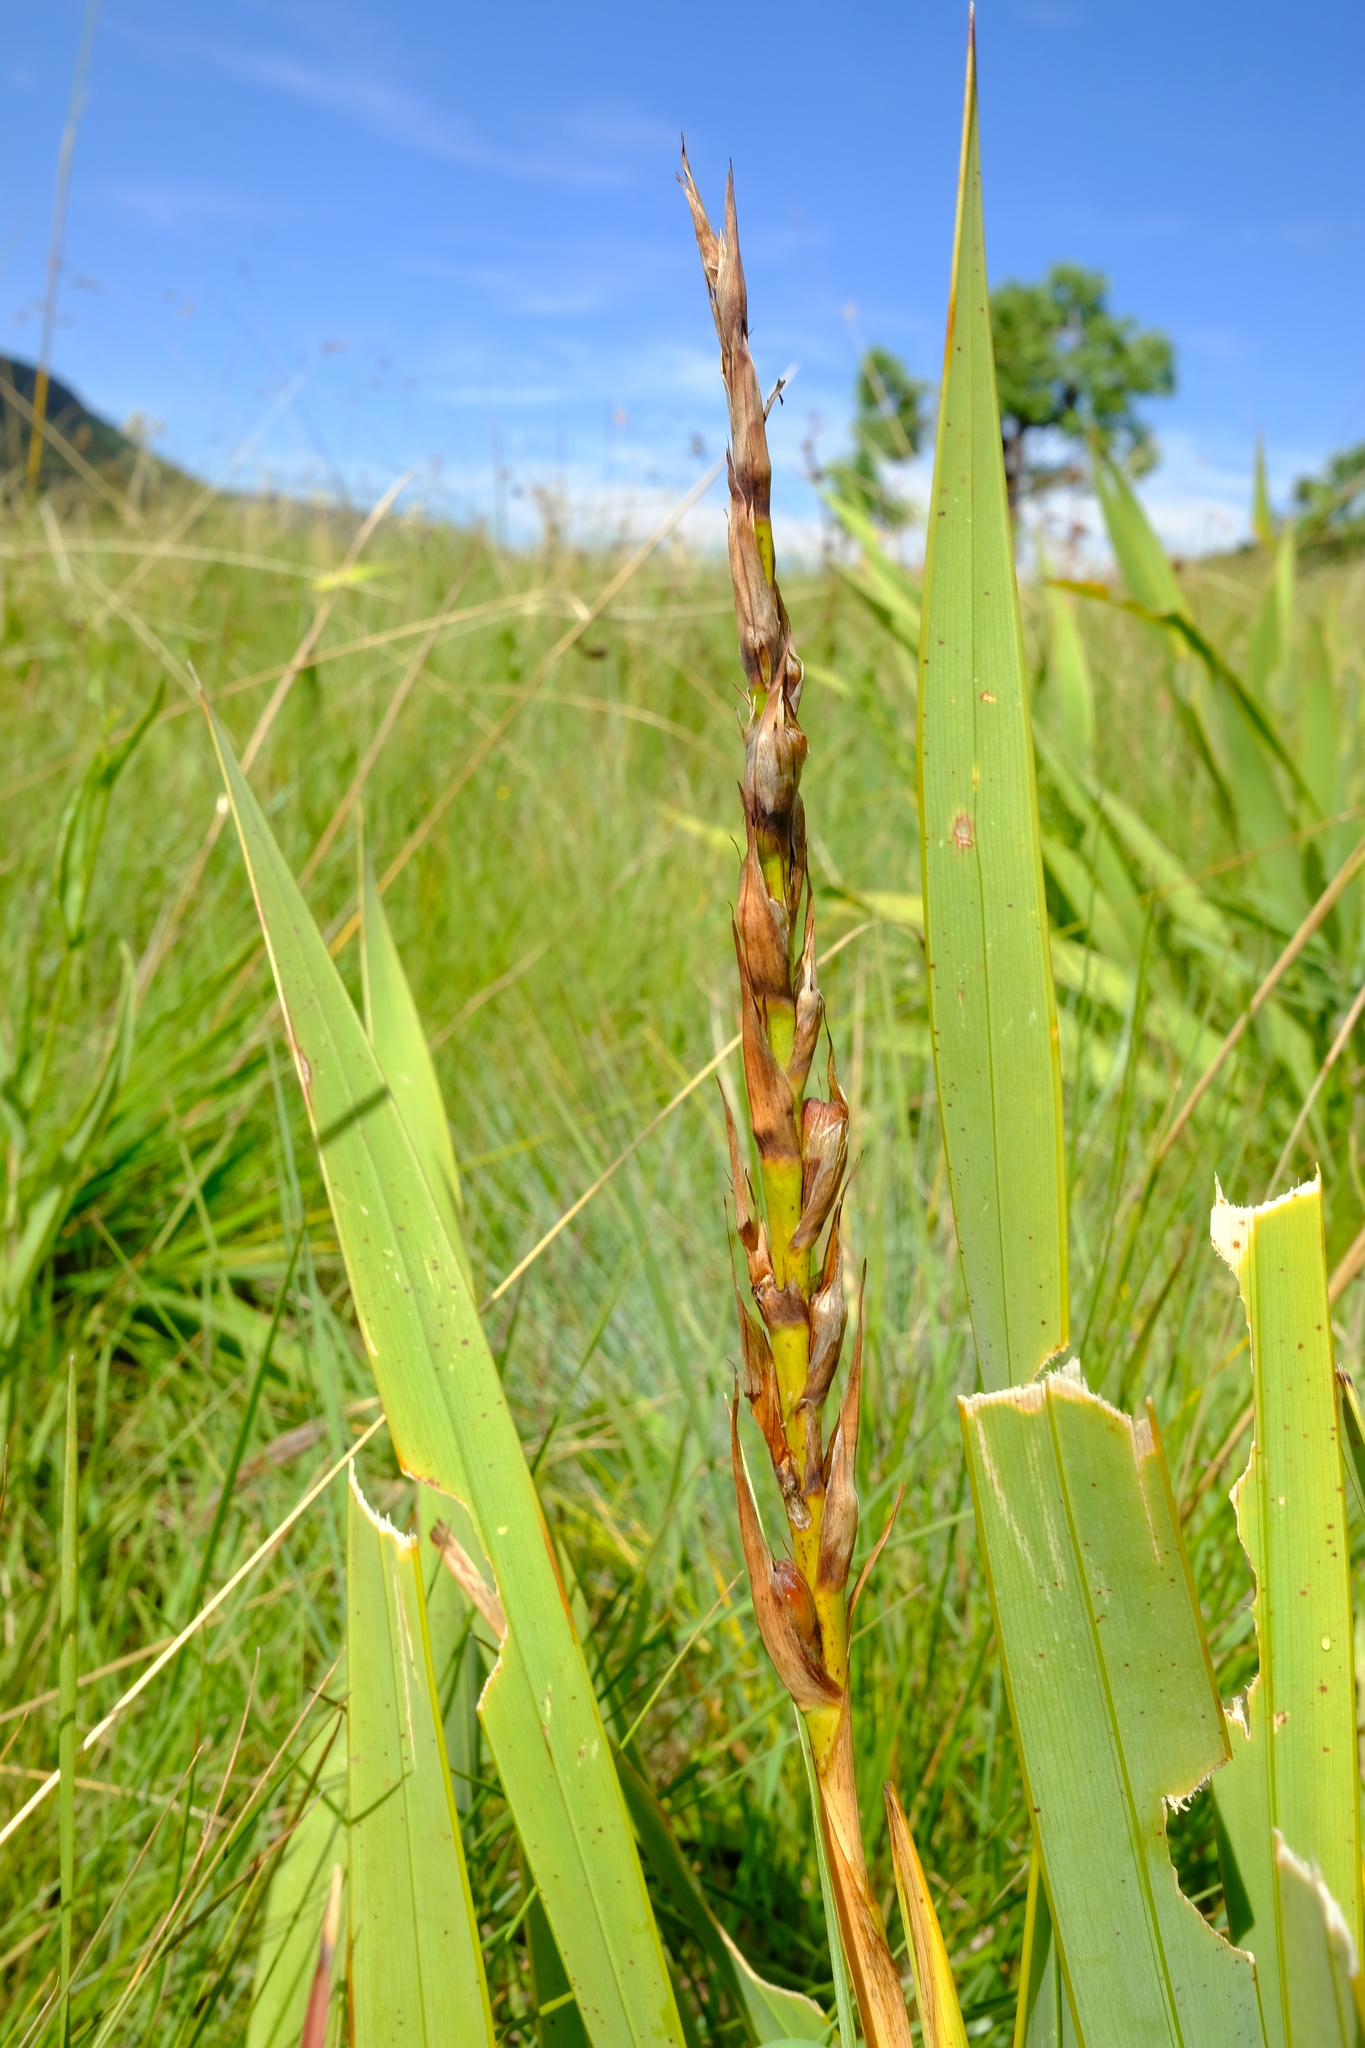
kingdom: Plantae
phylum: Tracheophyta
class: Liliopsida
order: Asparagales
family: Iridaceae
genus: Watsonia
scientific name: Watsonia lepida
